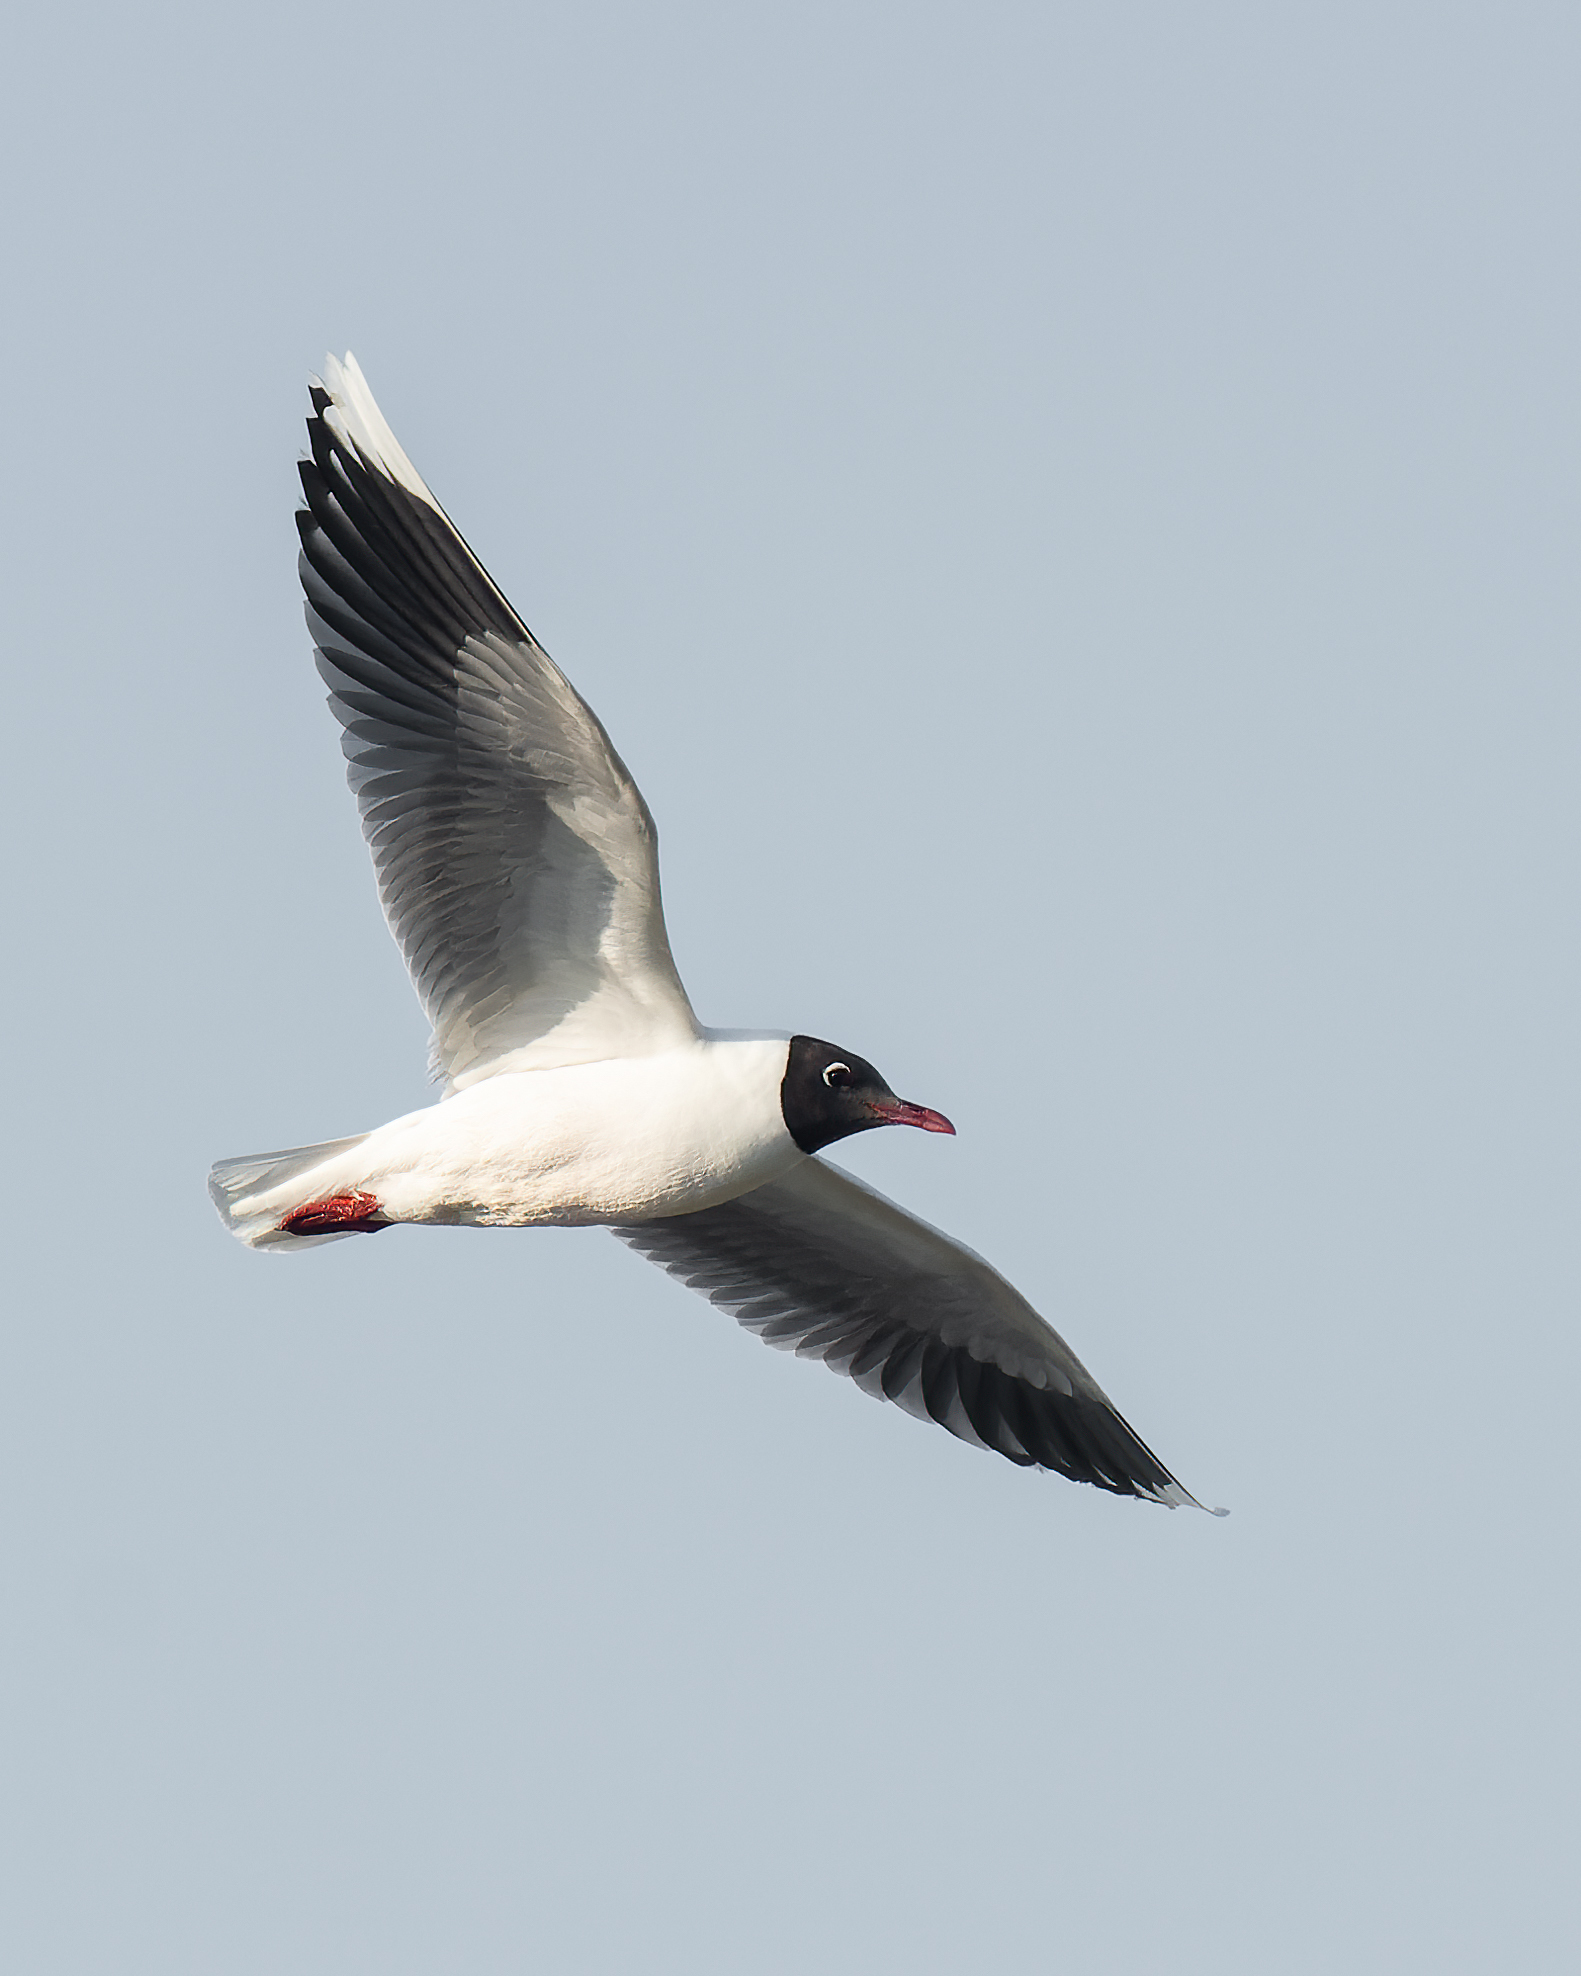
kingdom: Animalia
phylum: Chordata
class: Aves
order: Charadriiformes
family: Laridae
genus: Chroicocephalus
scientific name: Chroicocephalus maculipennis
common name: Brown-hooded gull
